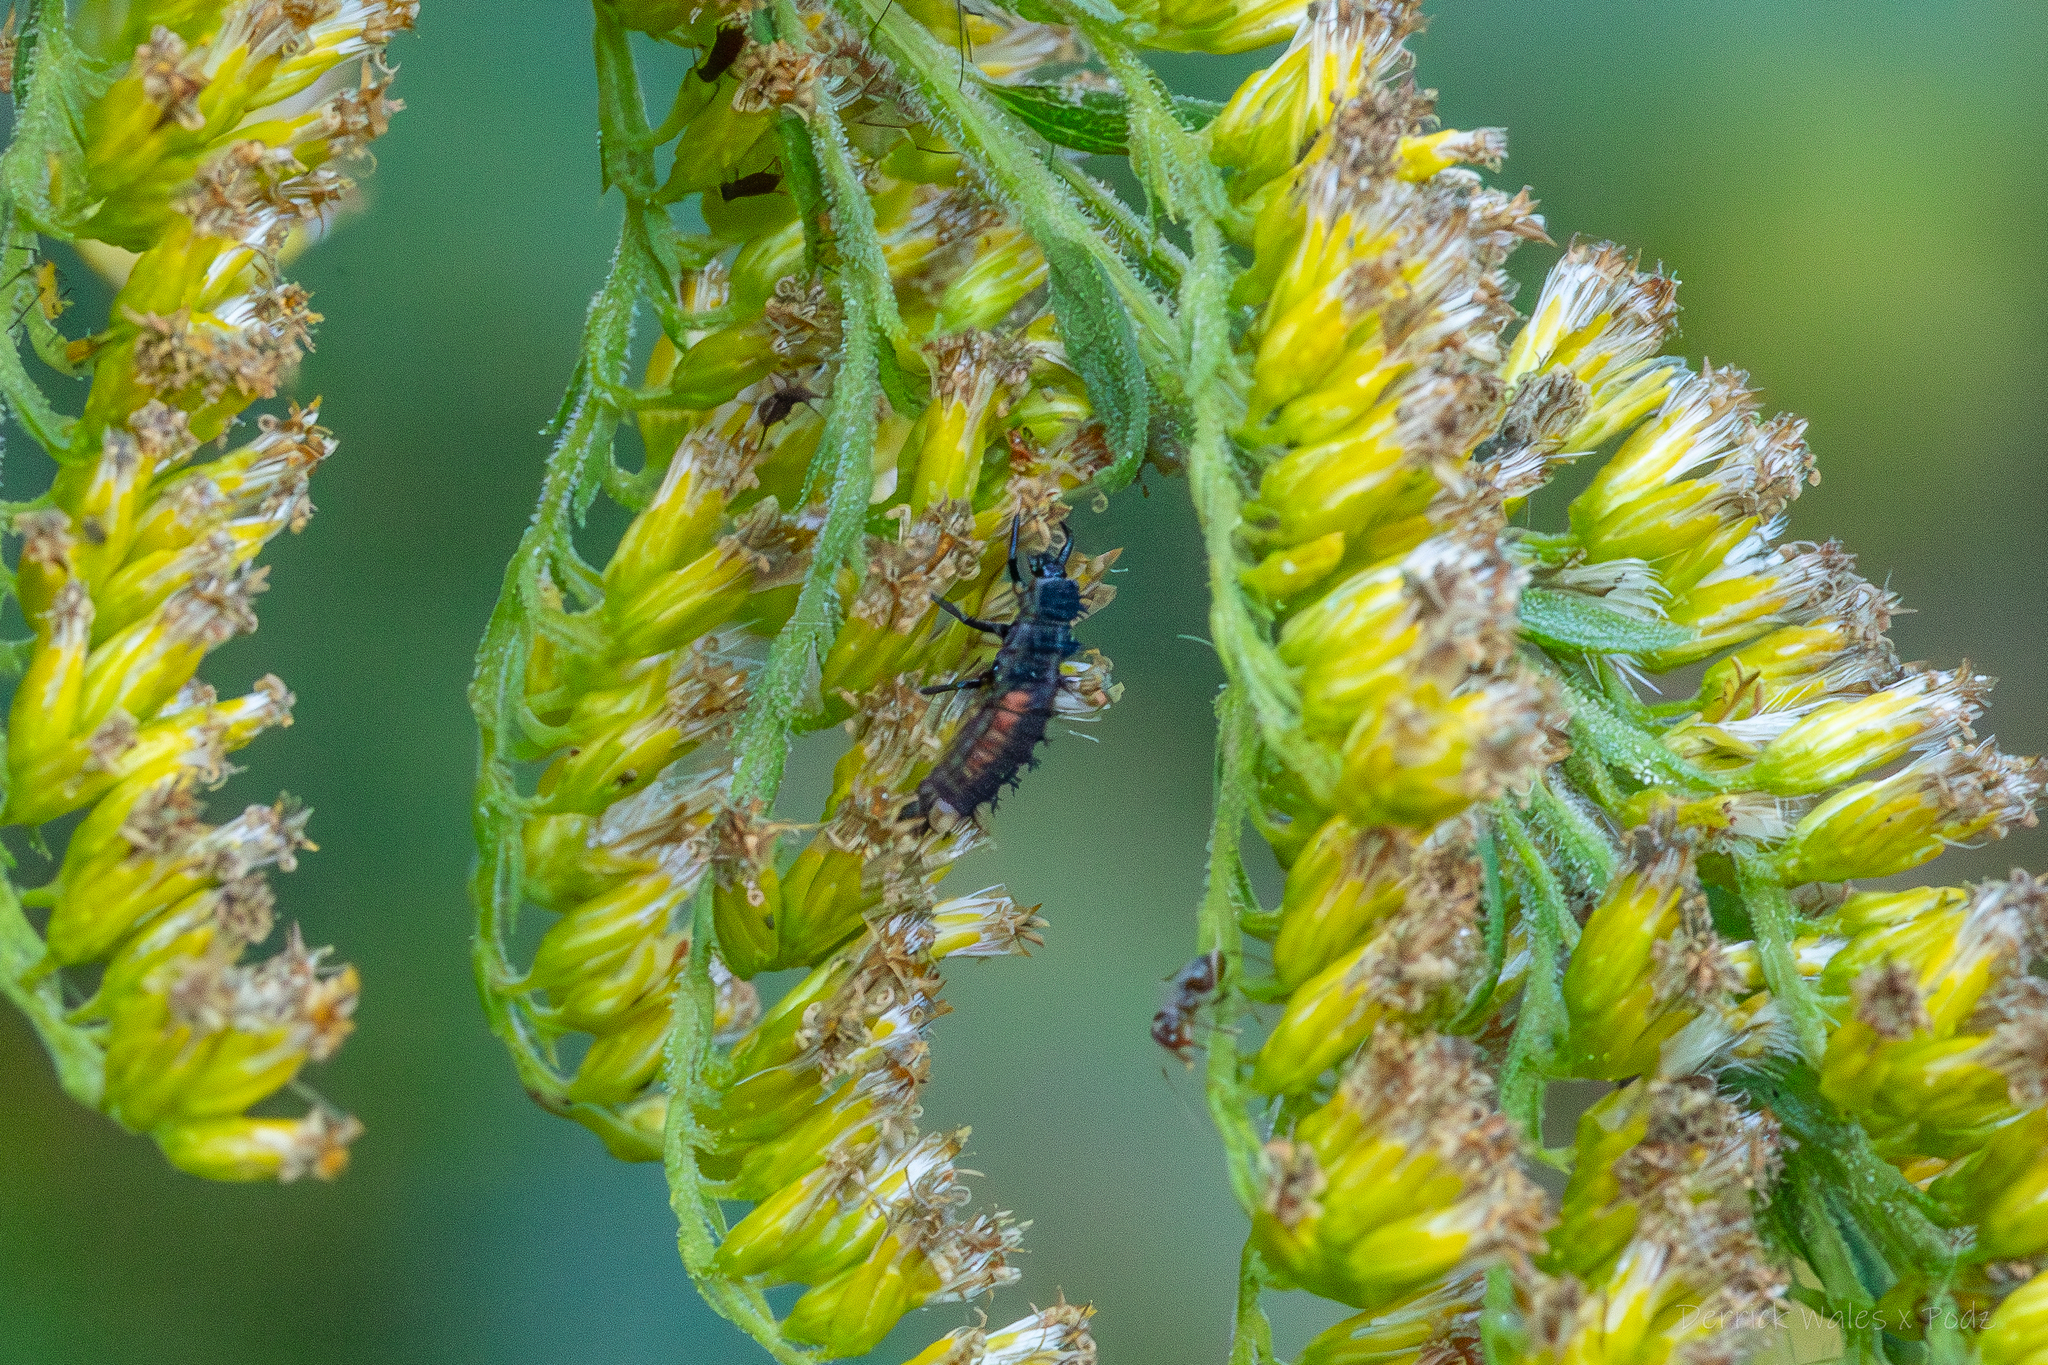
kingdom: Animalia
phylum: Arthropoda
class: Insecta
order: Coleoptera
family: Coccinellidae
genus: Harmonia
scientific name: Harmonia axyridis
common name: Harlequin ladybird
